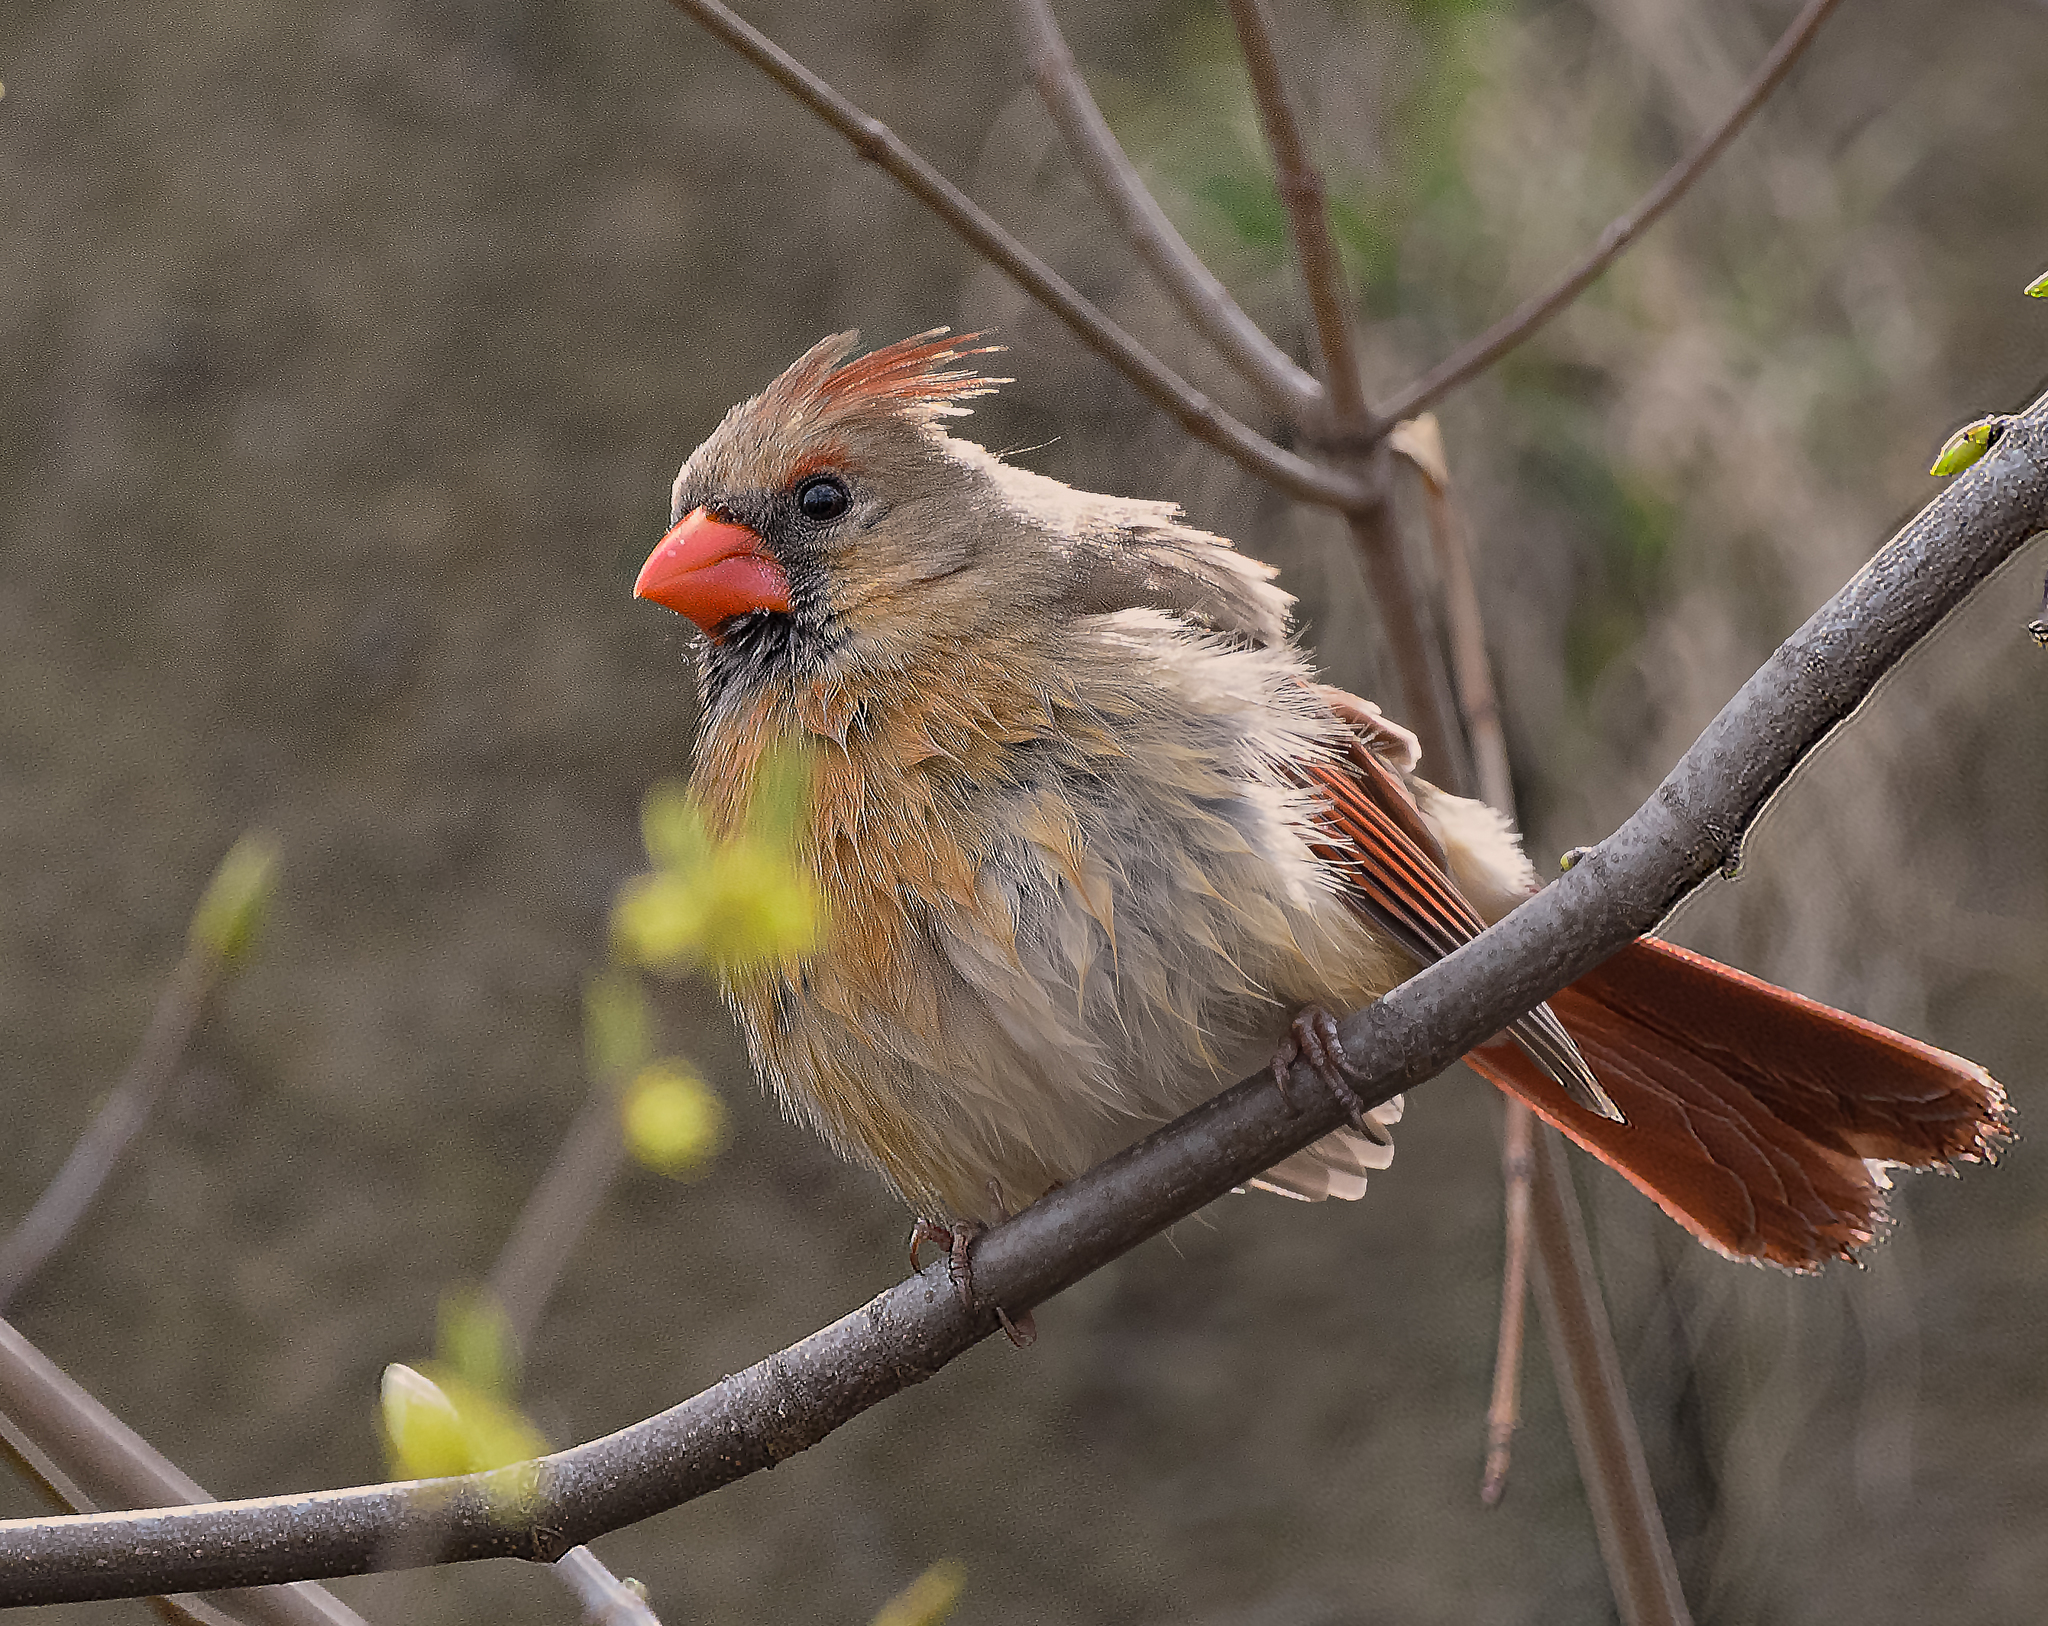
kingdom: Animalia
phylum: Chordata
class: Aves
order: Passeriformes
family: Cardinalidae
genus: Cardinalis
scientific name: Cardinalis cardinalis
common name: Northern cardinal
